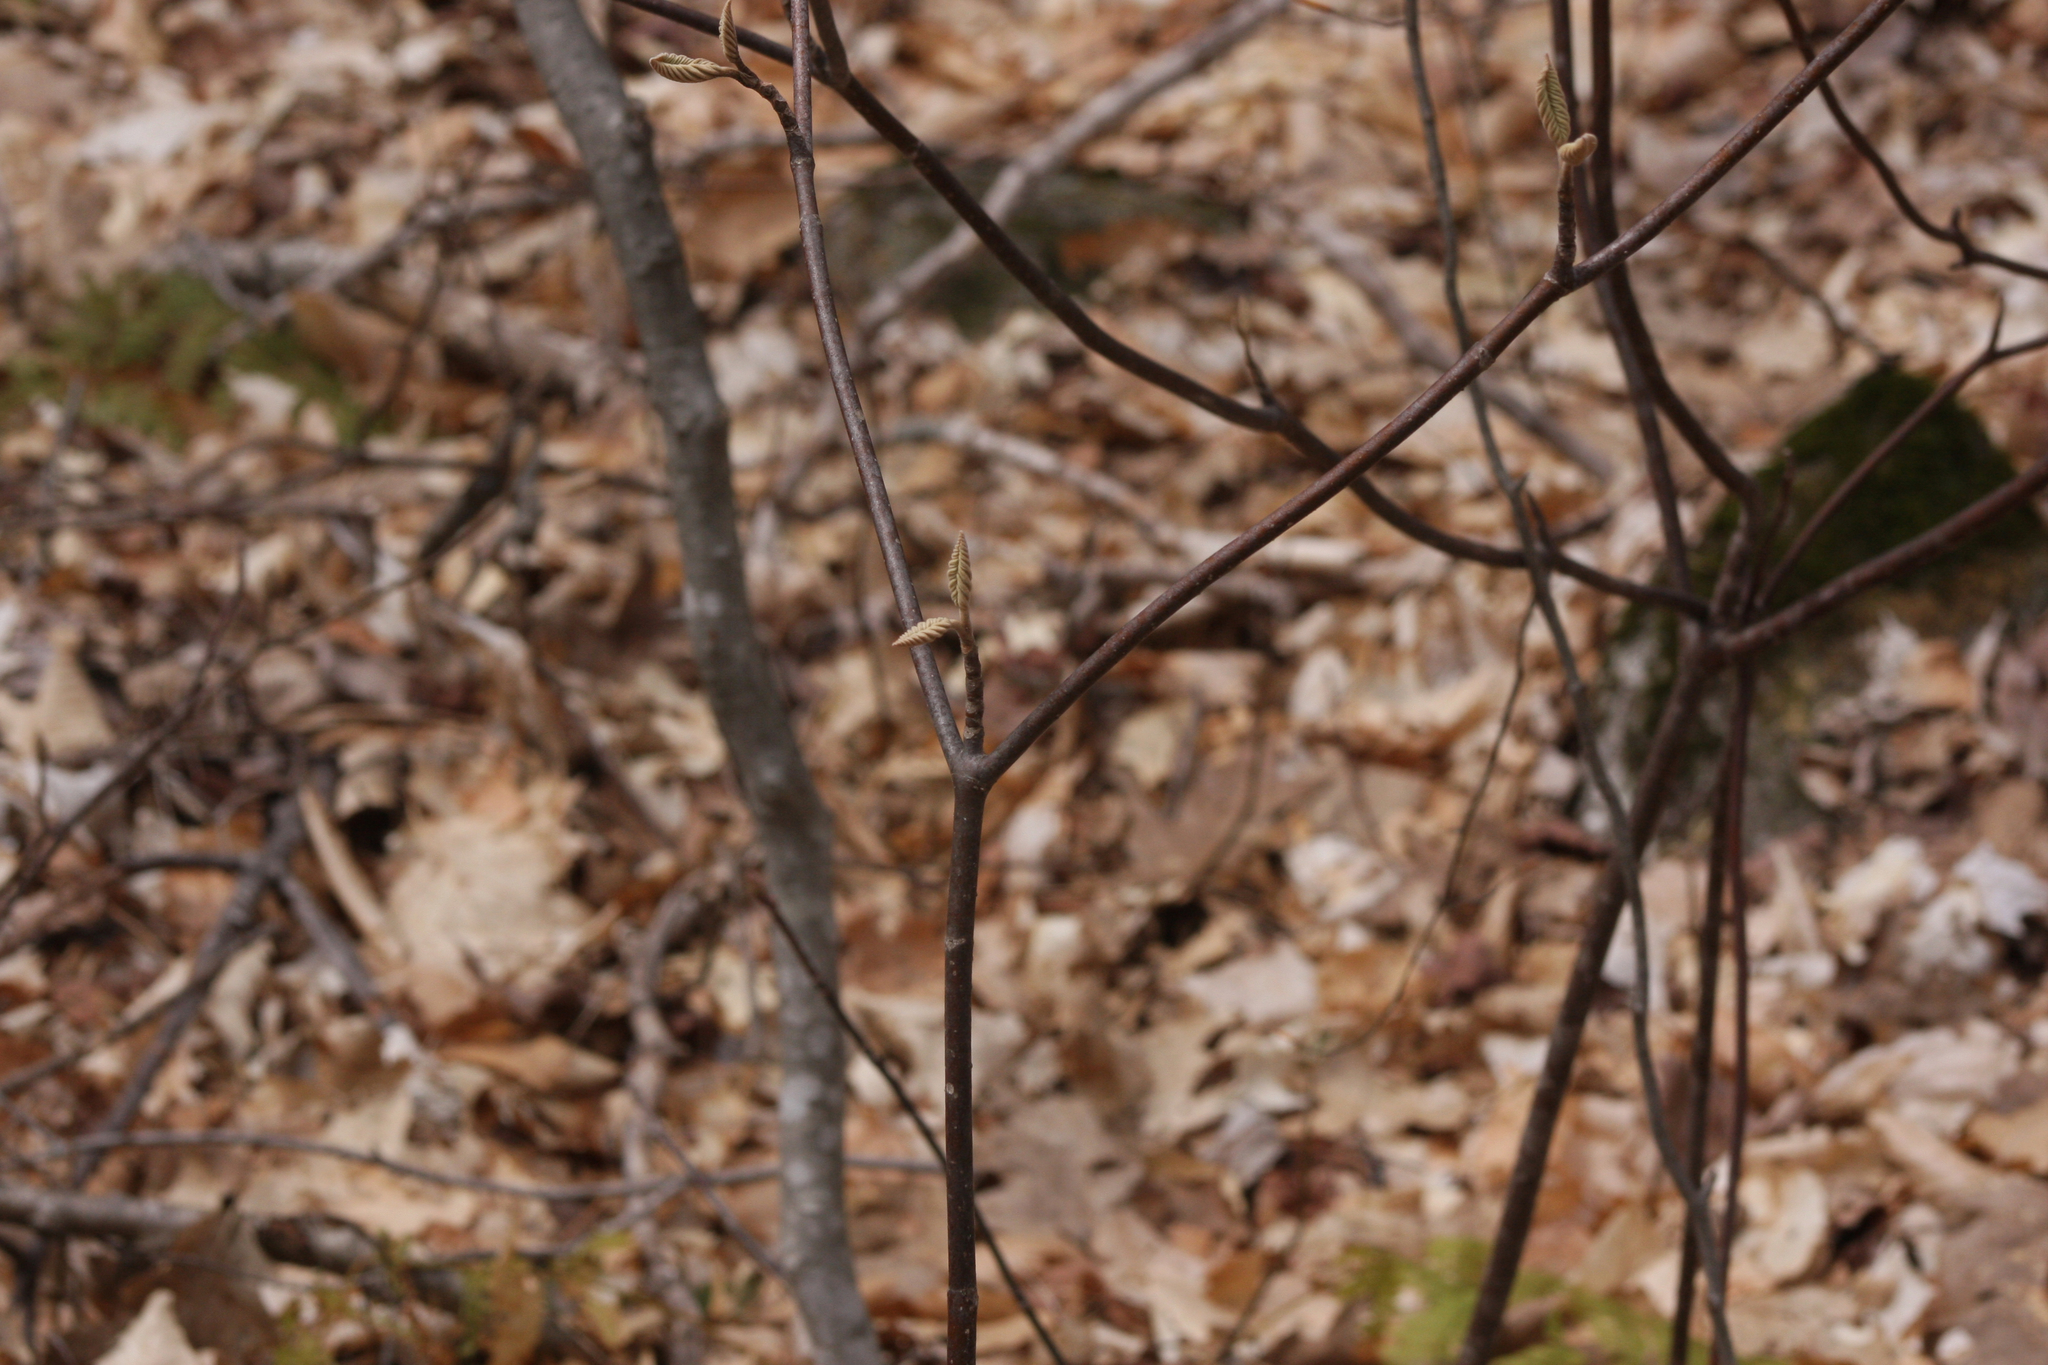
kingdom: Plantae
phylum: Tracheophyta
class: Magnoliopsida
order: Dipsacales
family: Viburnaceae
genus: Viburnum
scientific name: Viburnum lantanoides
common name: Hobblebush
